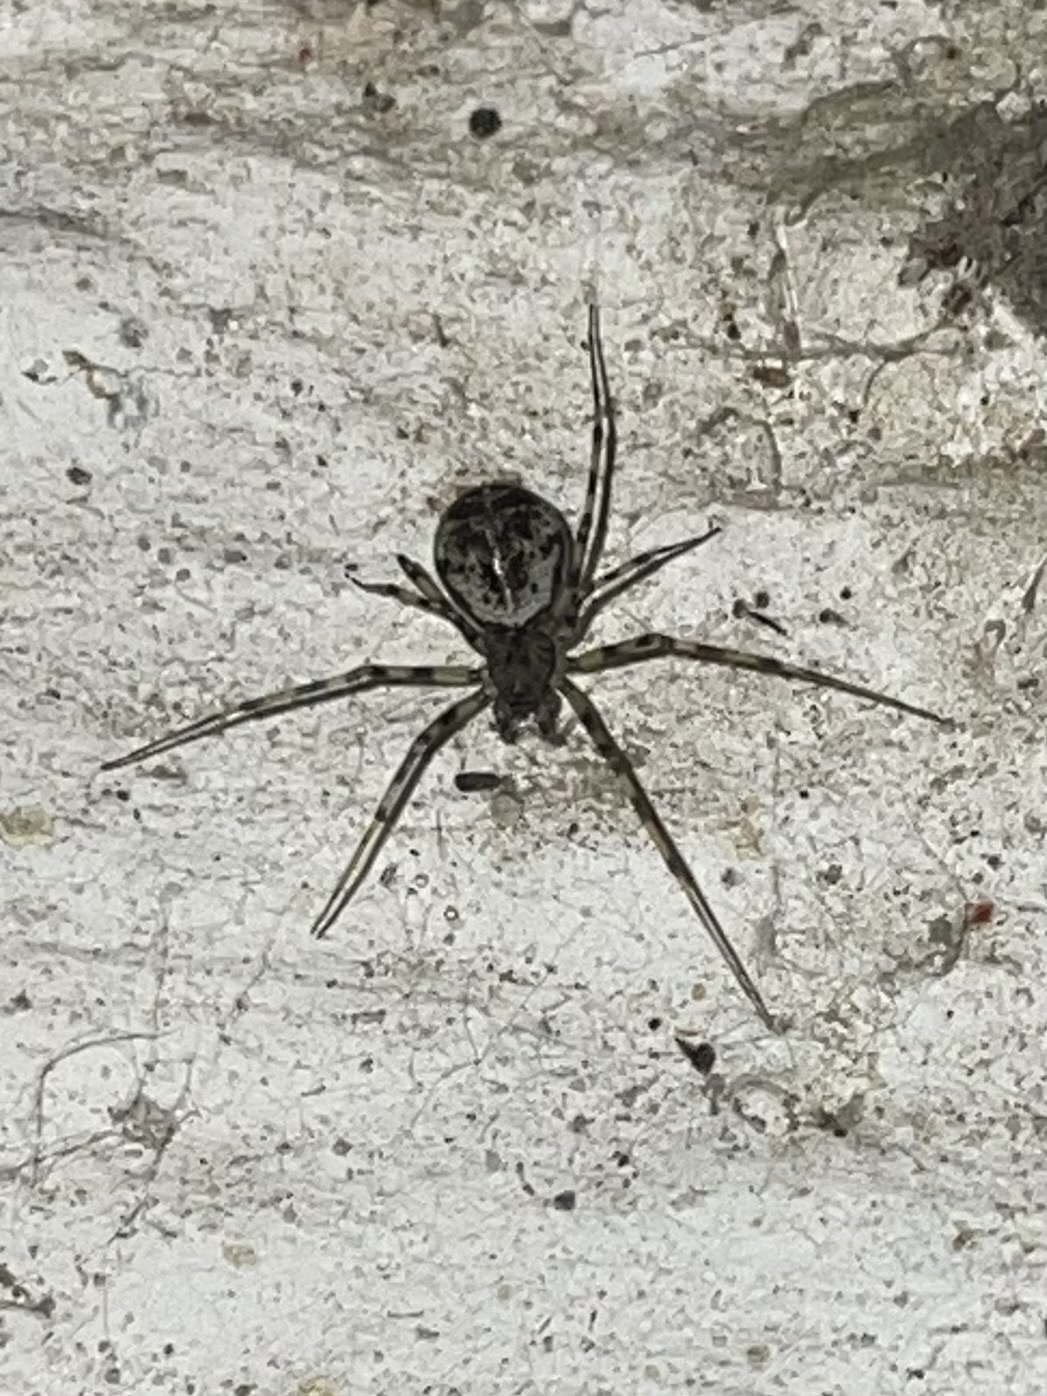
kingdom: Animalia
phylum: Arthropoda
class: Arachnida
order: Araneae
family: Linyphiidae
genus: Drapetisca
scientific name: Drapetisca socialis
